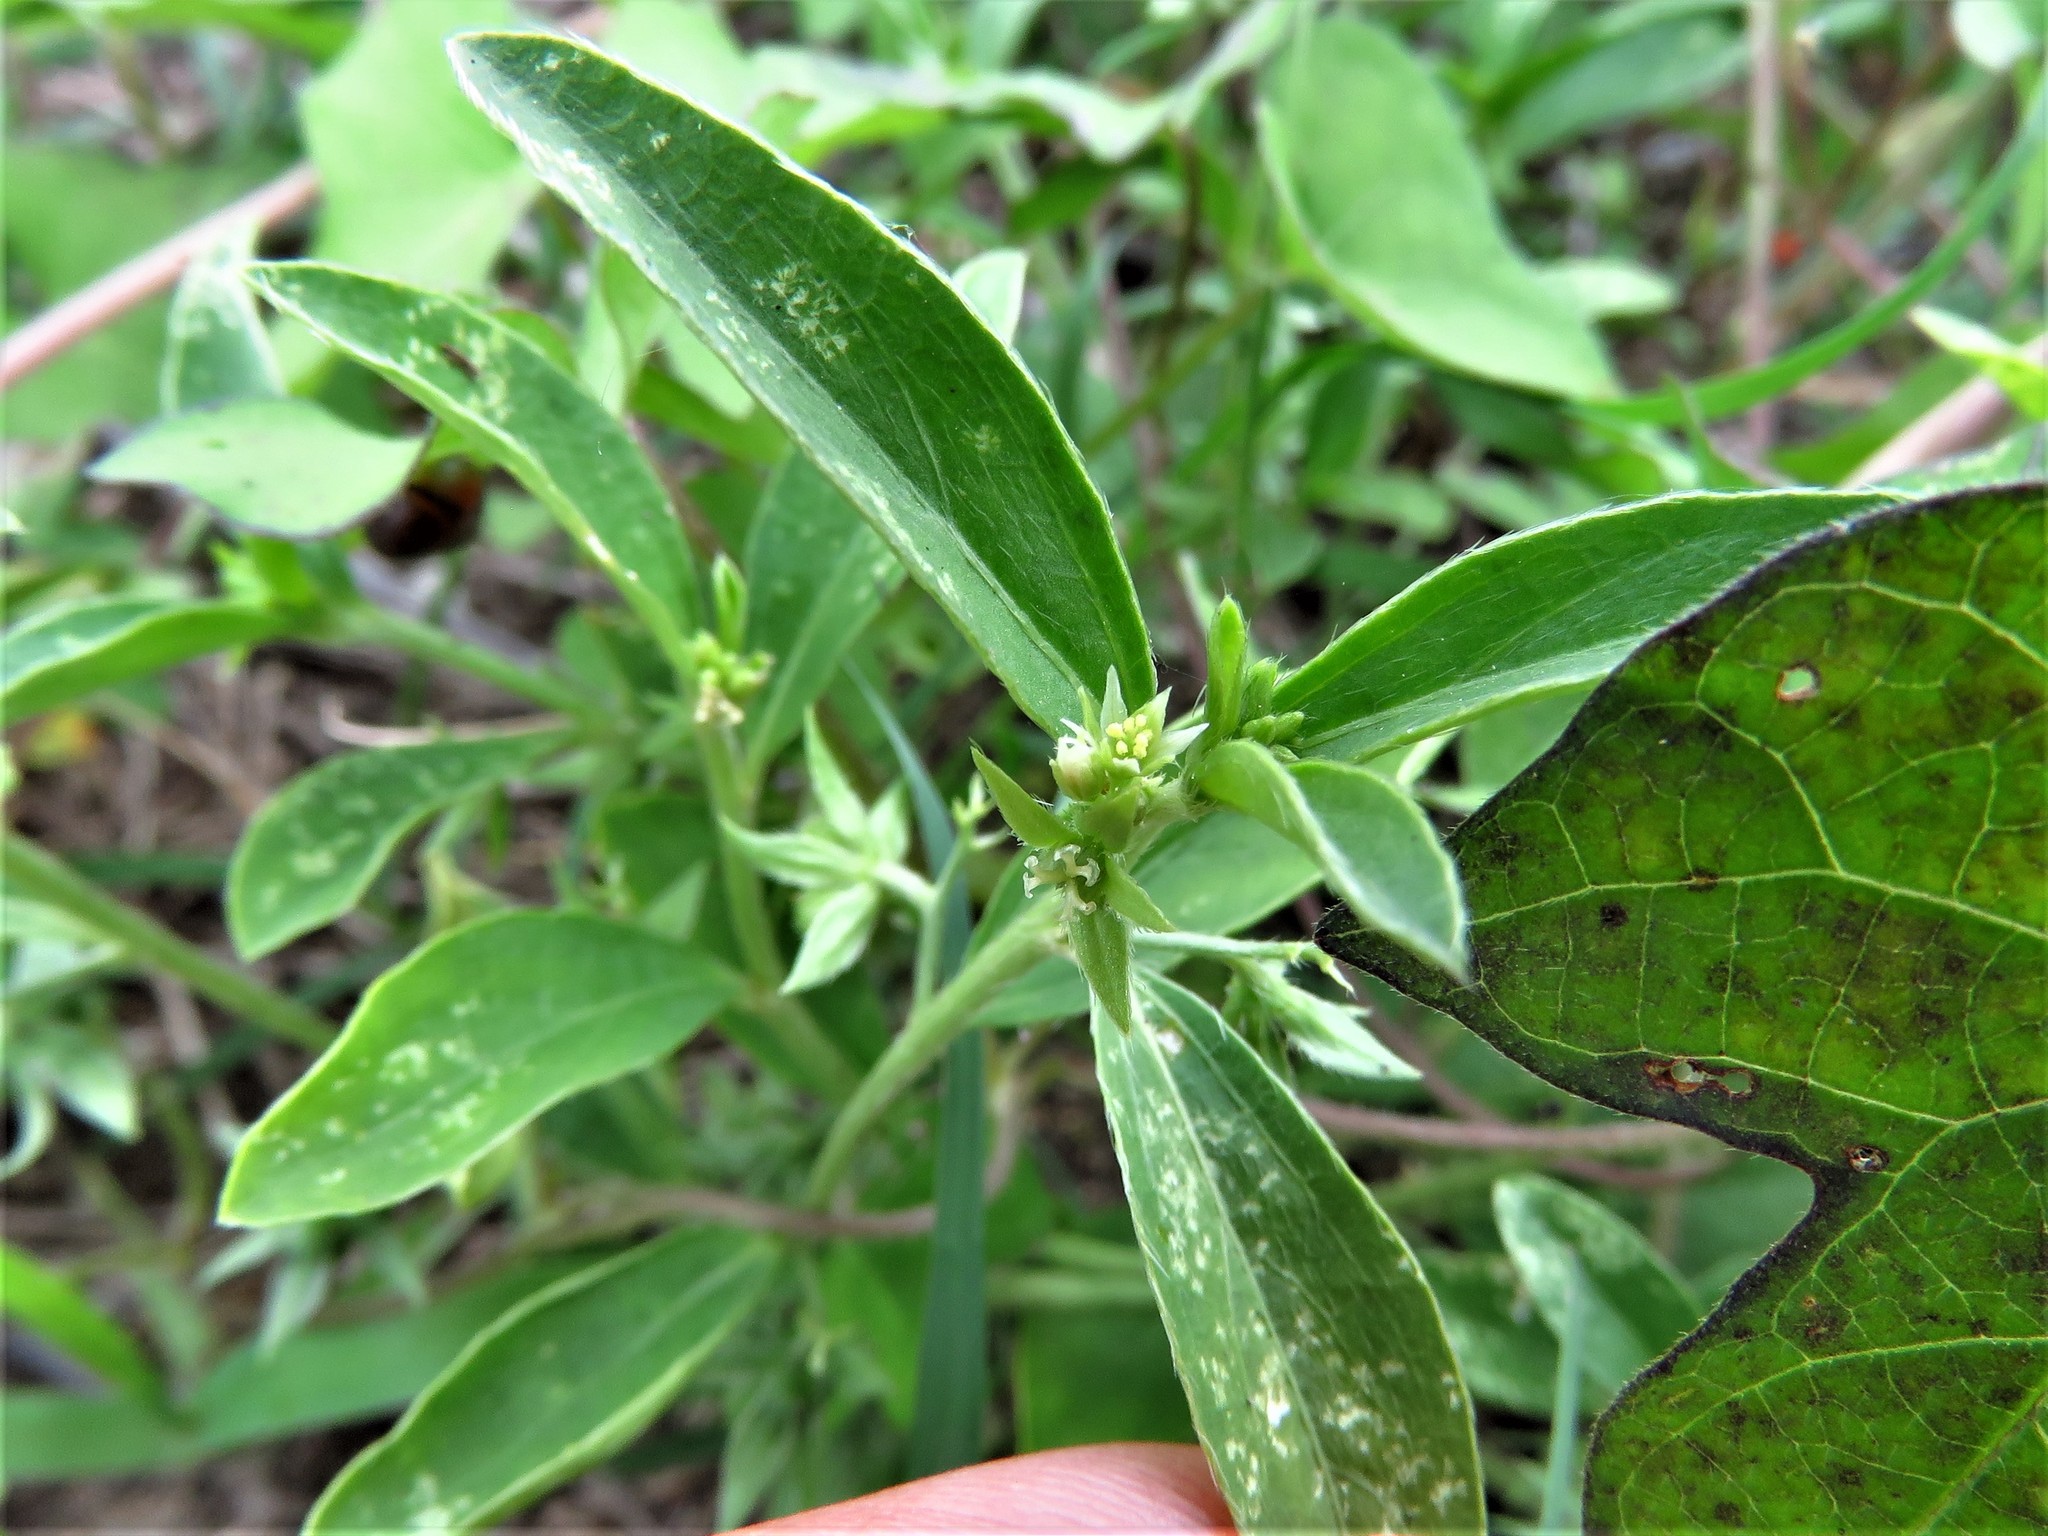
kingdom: Plantae
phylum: Tracheophyta
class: Magnoliopsida
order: Malpighiales
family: Euphorbiaceae
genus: Ditaxis
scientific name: Ditaxis humilis
